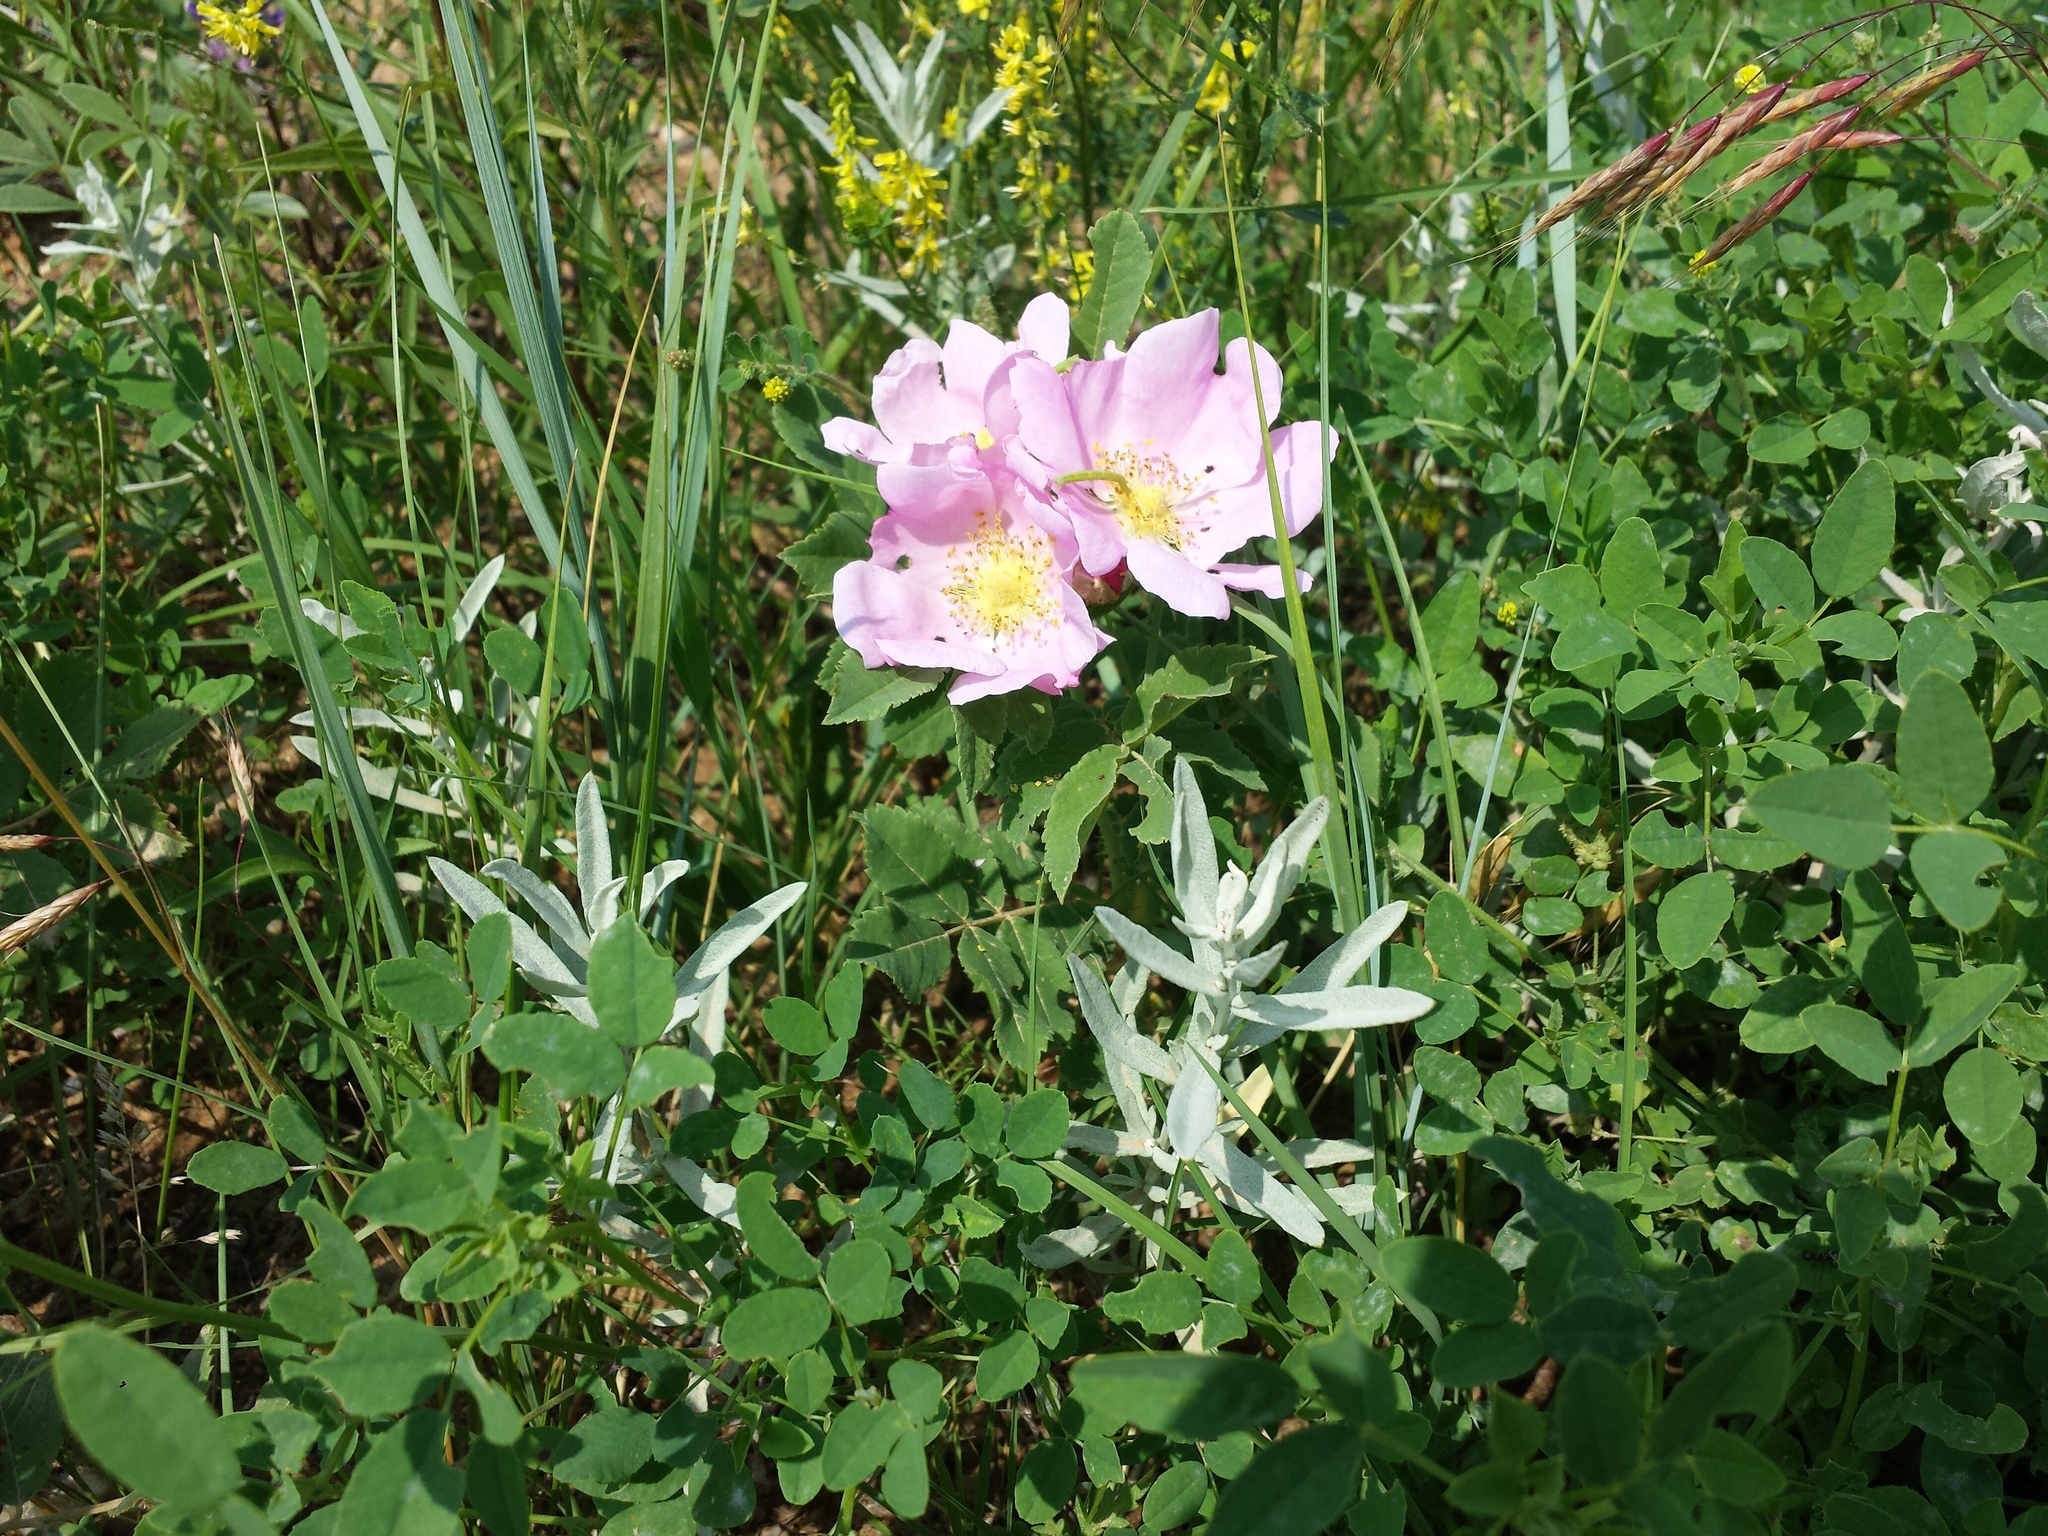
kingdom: Plantae
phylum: Tracheophyta
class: Magnoliopsida
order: Rosales
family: Rosaceae
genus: Rosa
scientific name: Rosa arkansana
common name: Prairie rose
